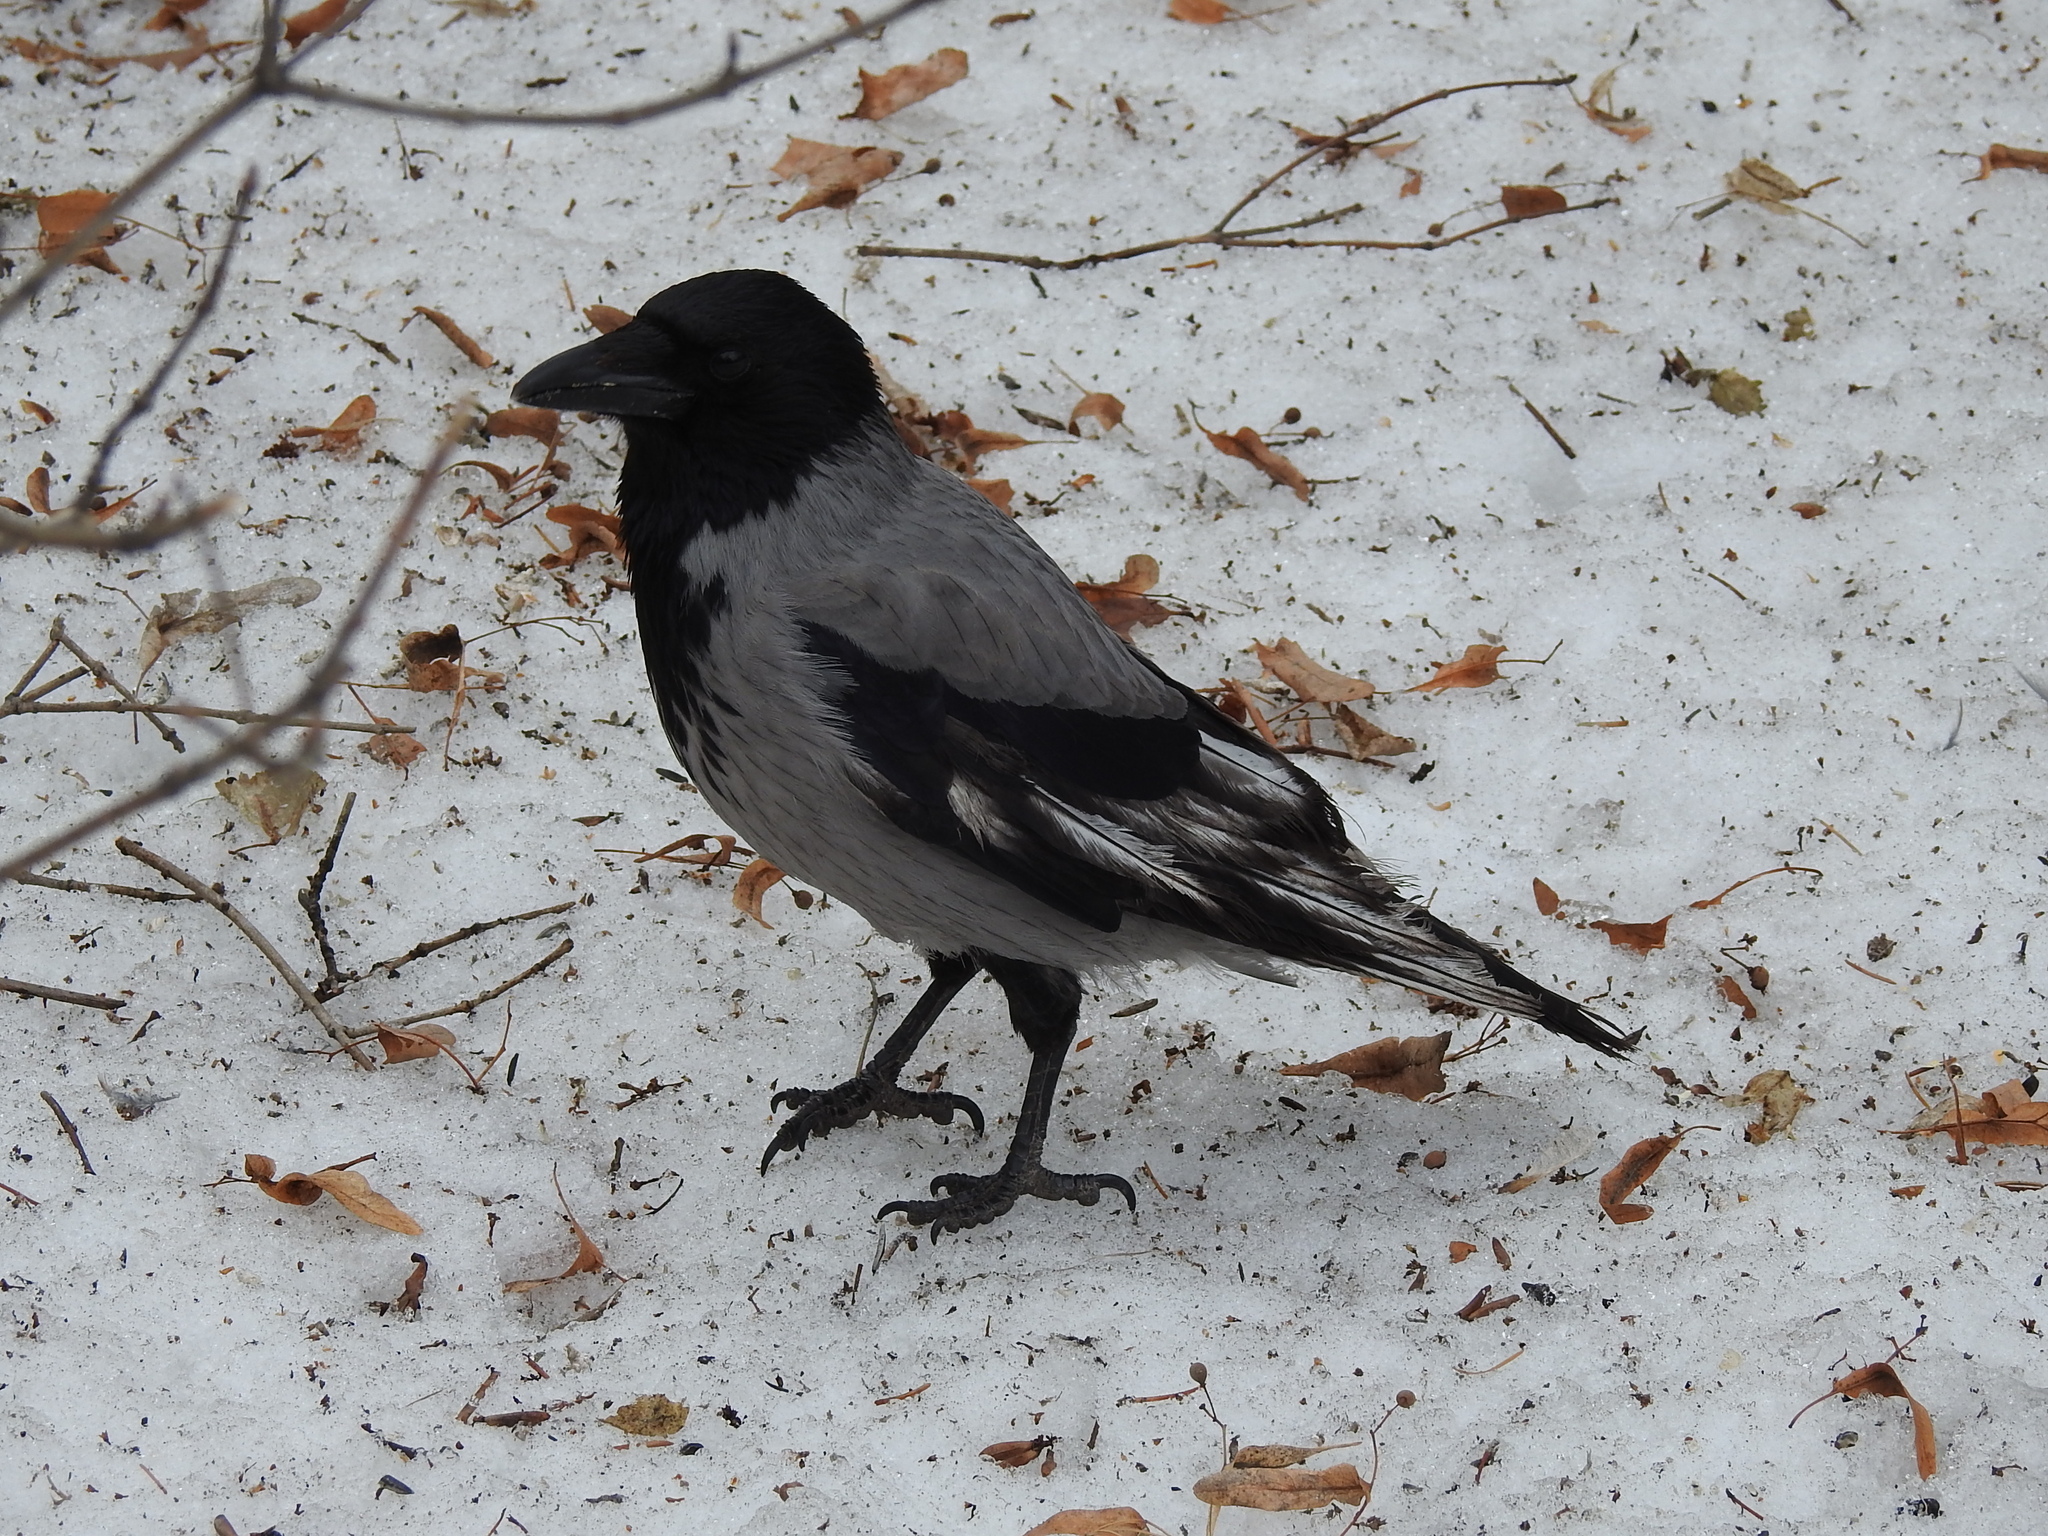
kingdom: Animalia
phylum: Chordata
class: Aves
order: Passeriformes
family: Corvidae
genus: Corvus
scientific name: Corvus cornix
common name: Hooded crow
